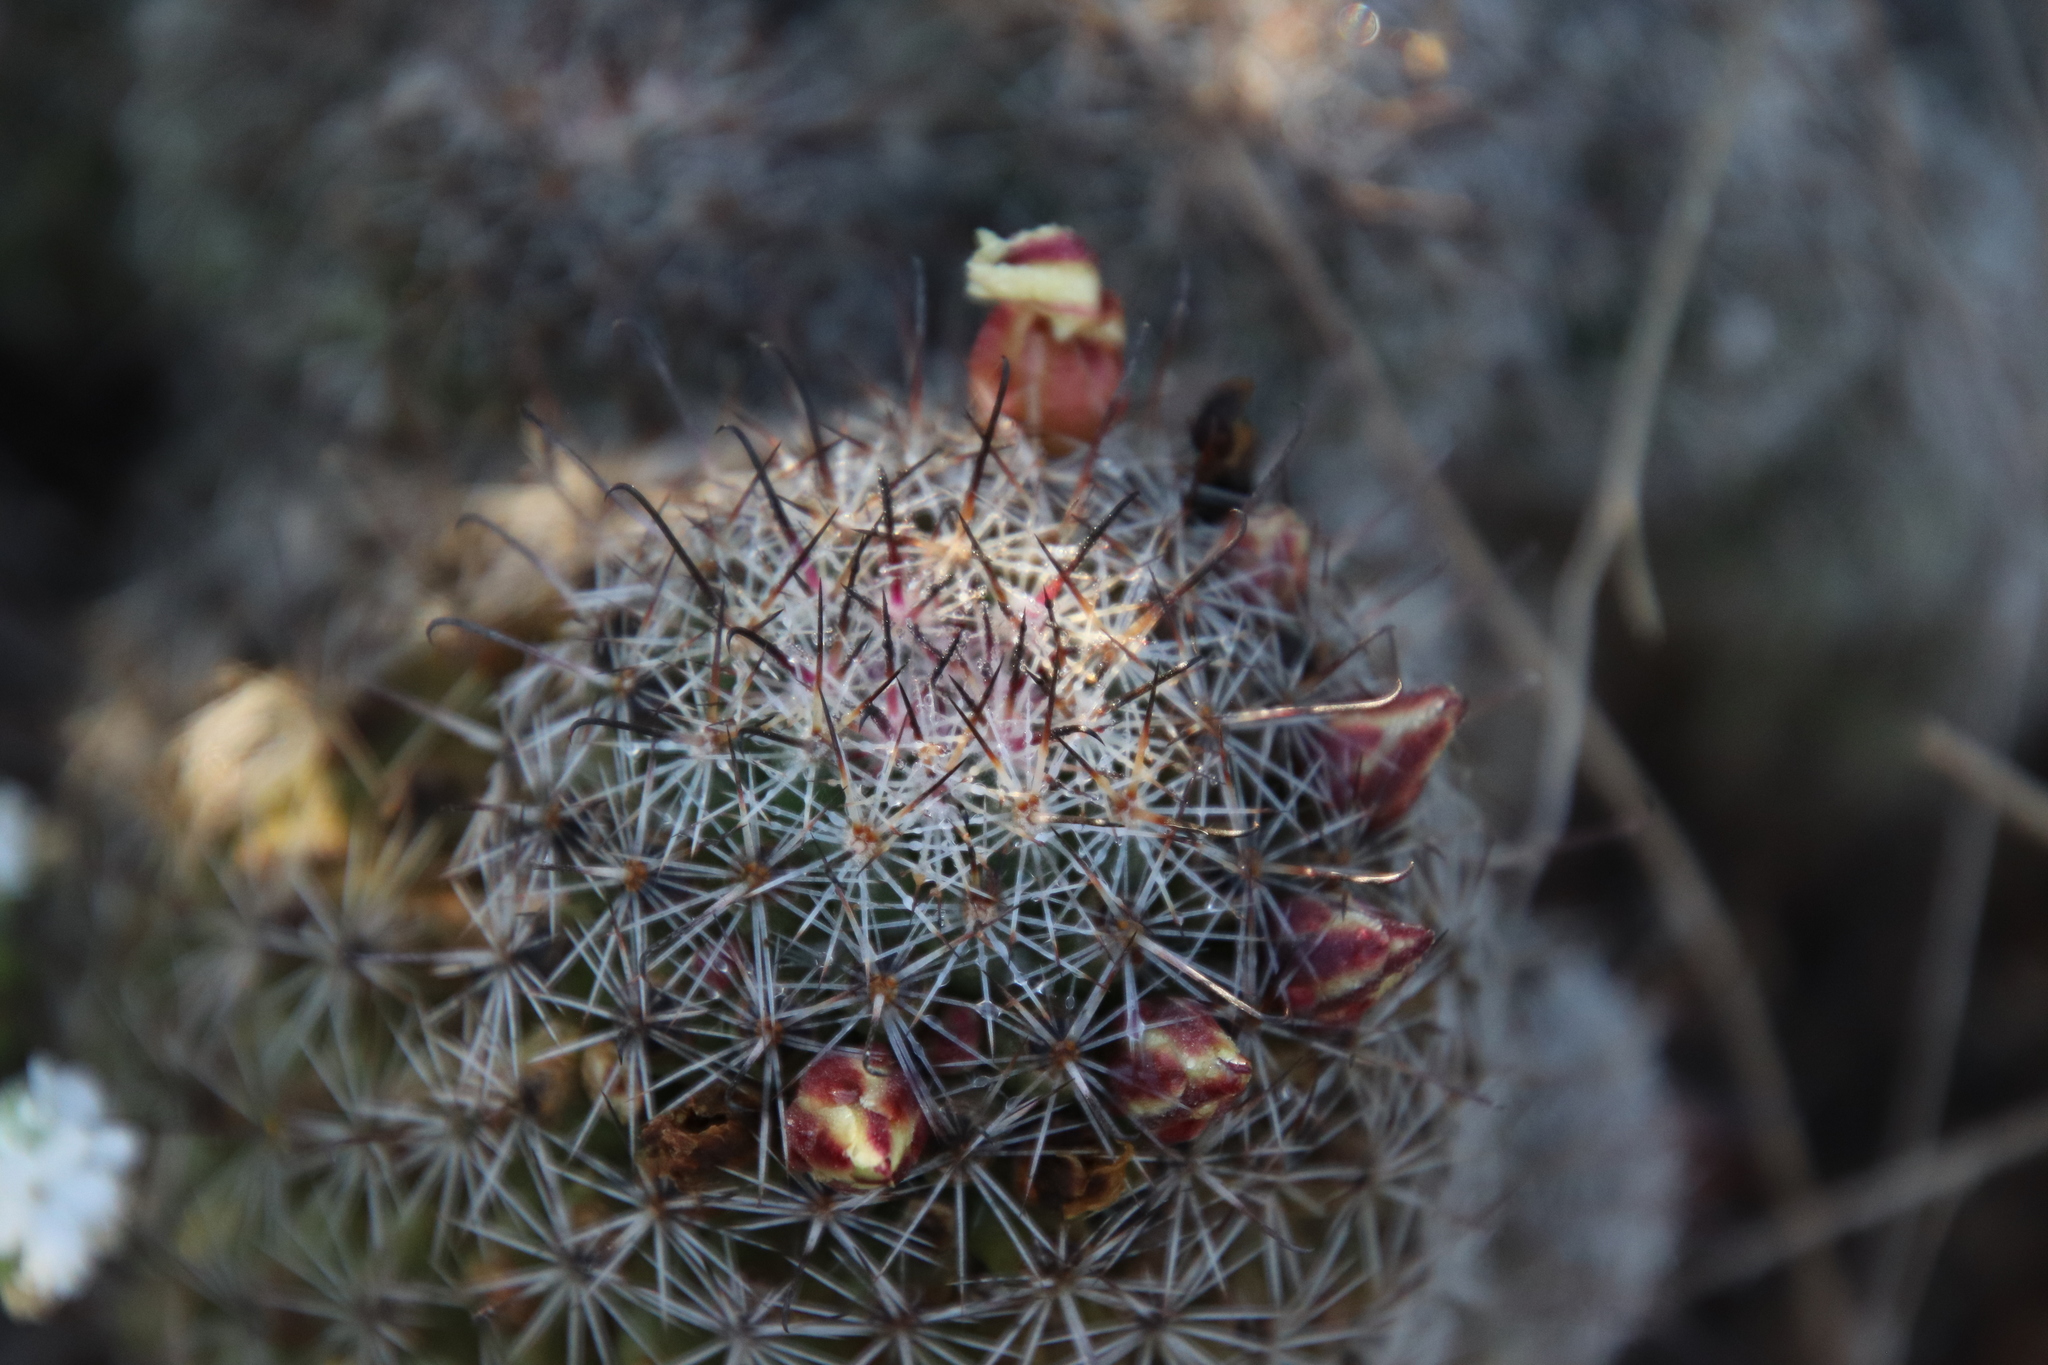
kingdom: Plantae
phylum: Tracheophyta
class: Magnoliopsida
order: Caryophyllales
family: Cactaceae
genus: Cochemiea
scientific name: Cochemiea dioica
